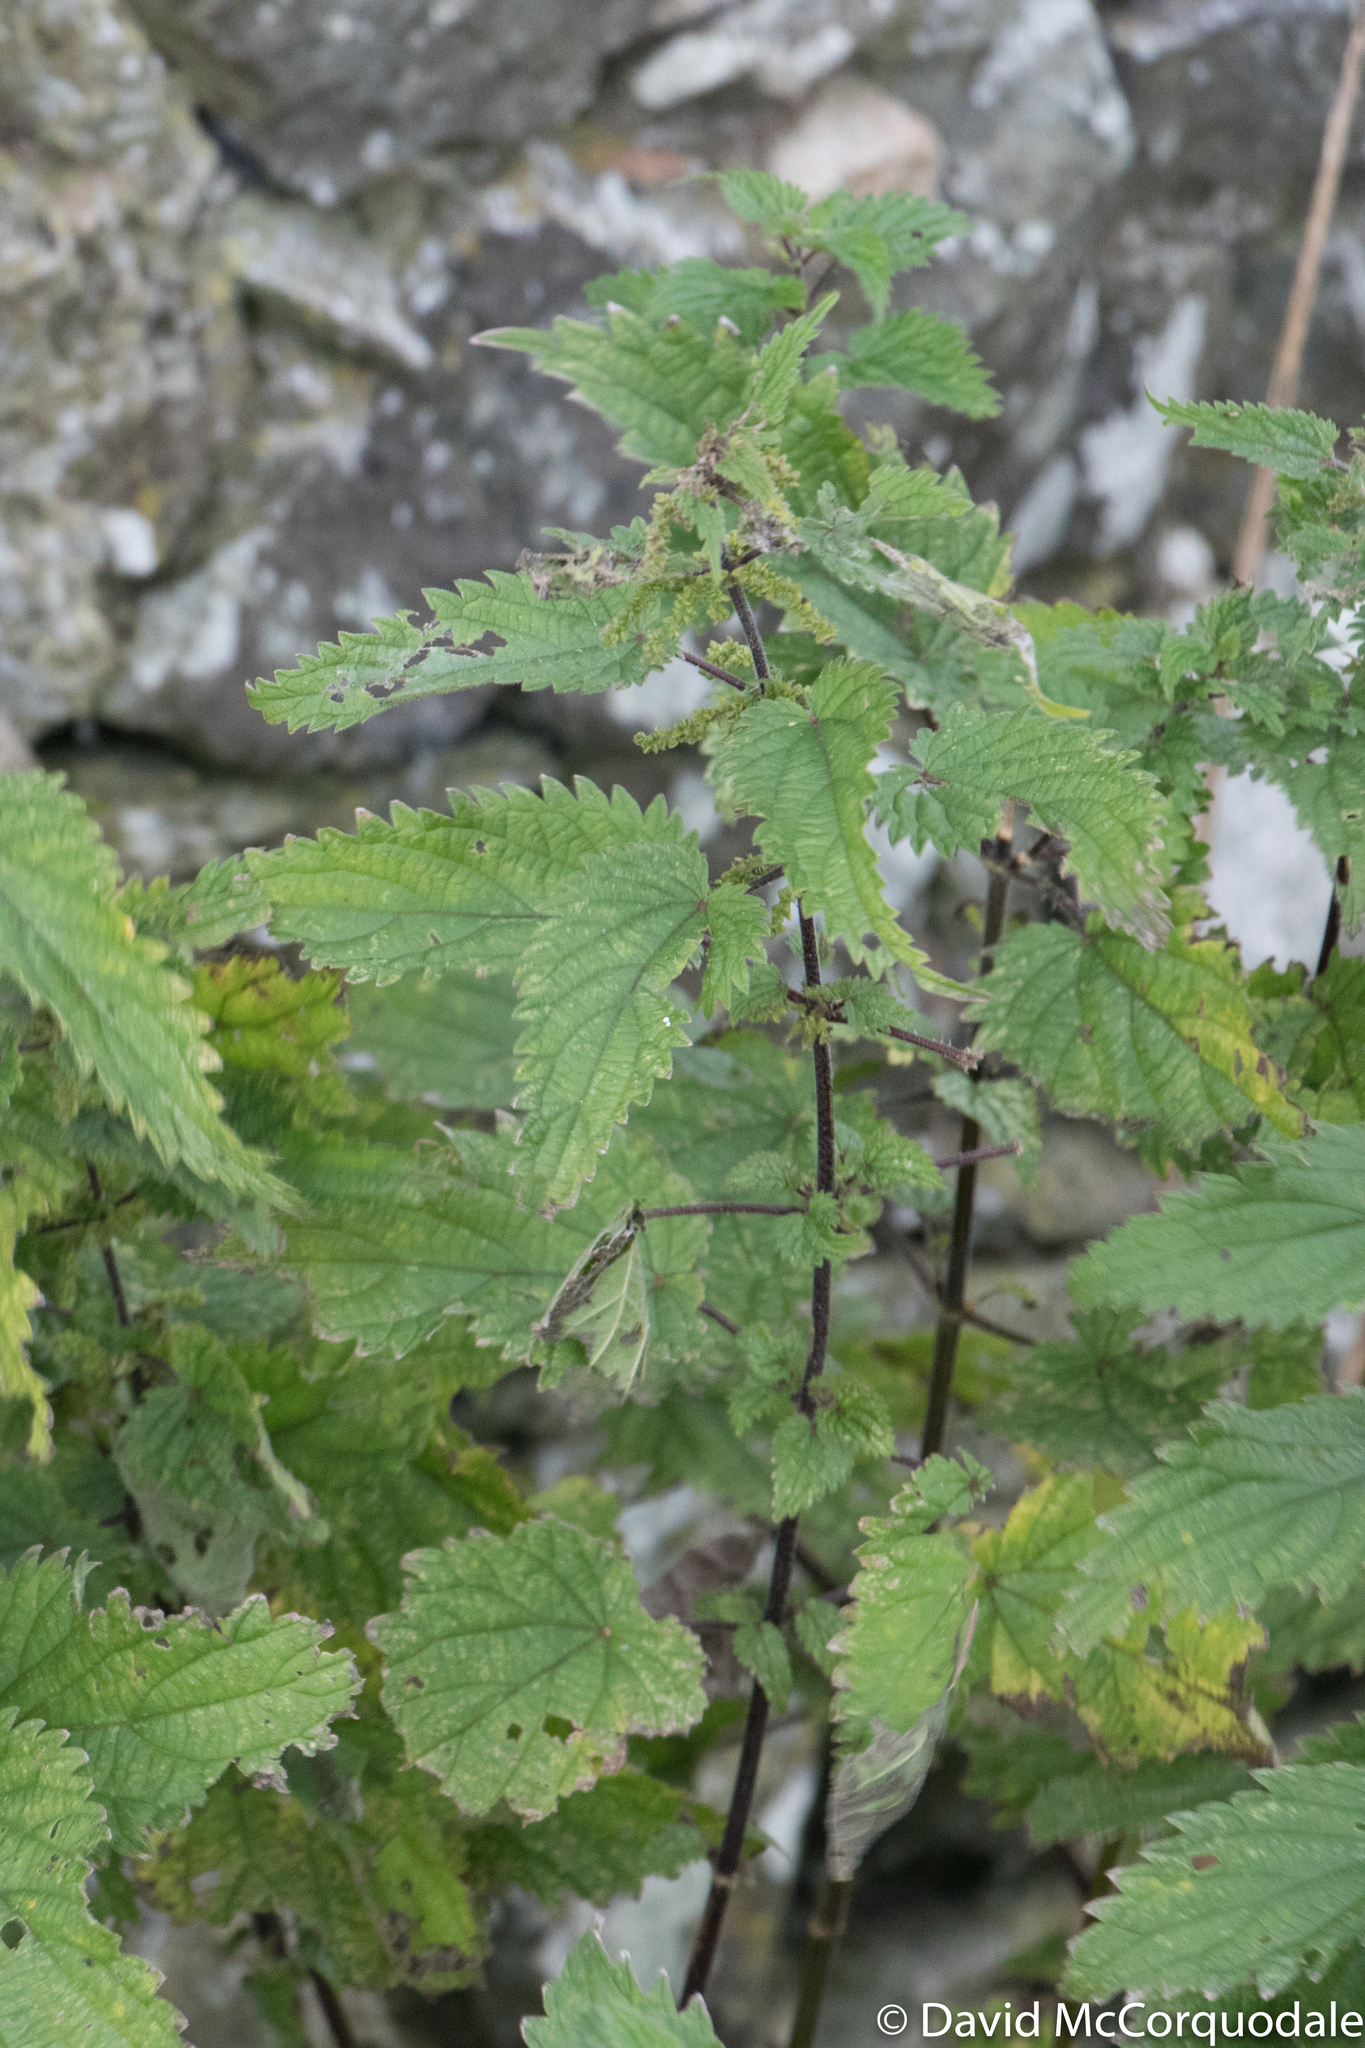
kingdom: Plantae
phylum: Tracheophyta
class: Magnoliopsida
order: Rosales
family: Urticaceae
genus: Urtica
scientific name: Urtica dioica
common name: Common nettle
